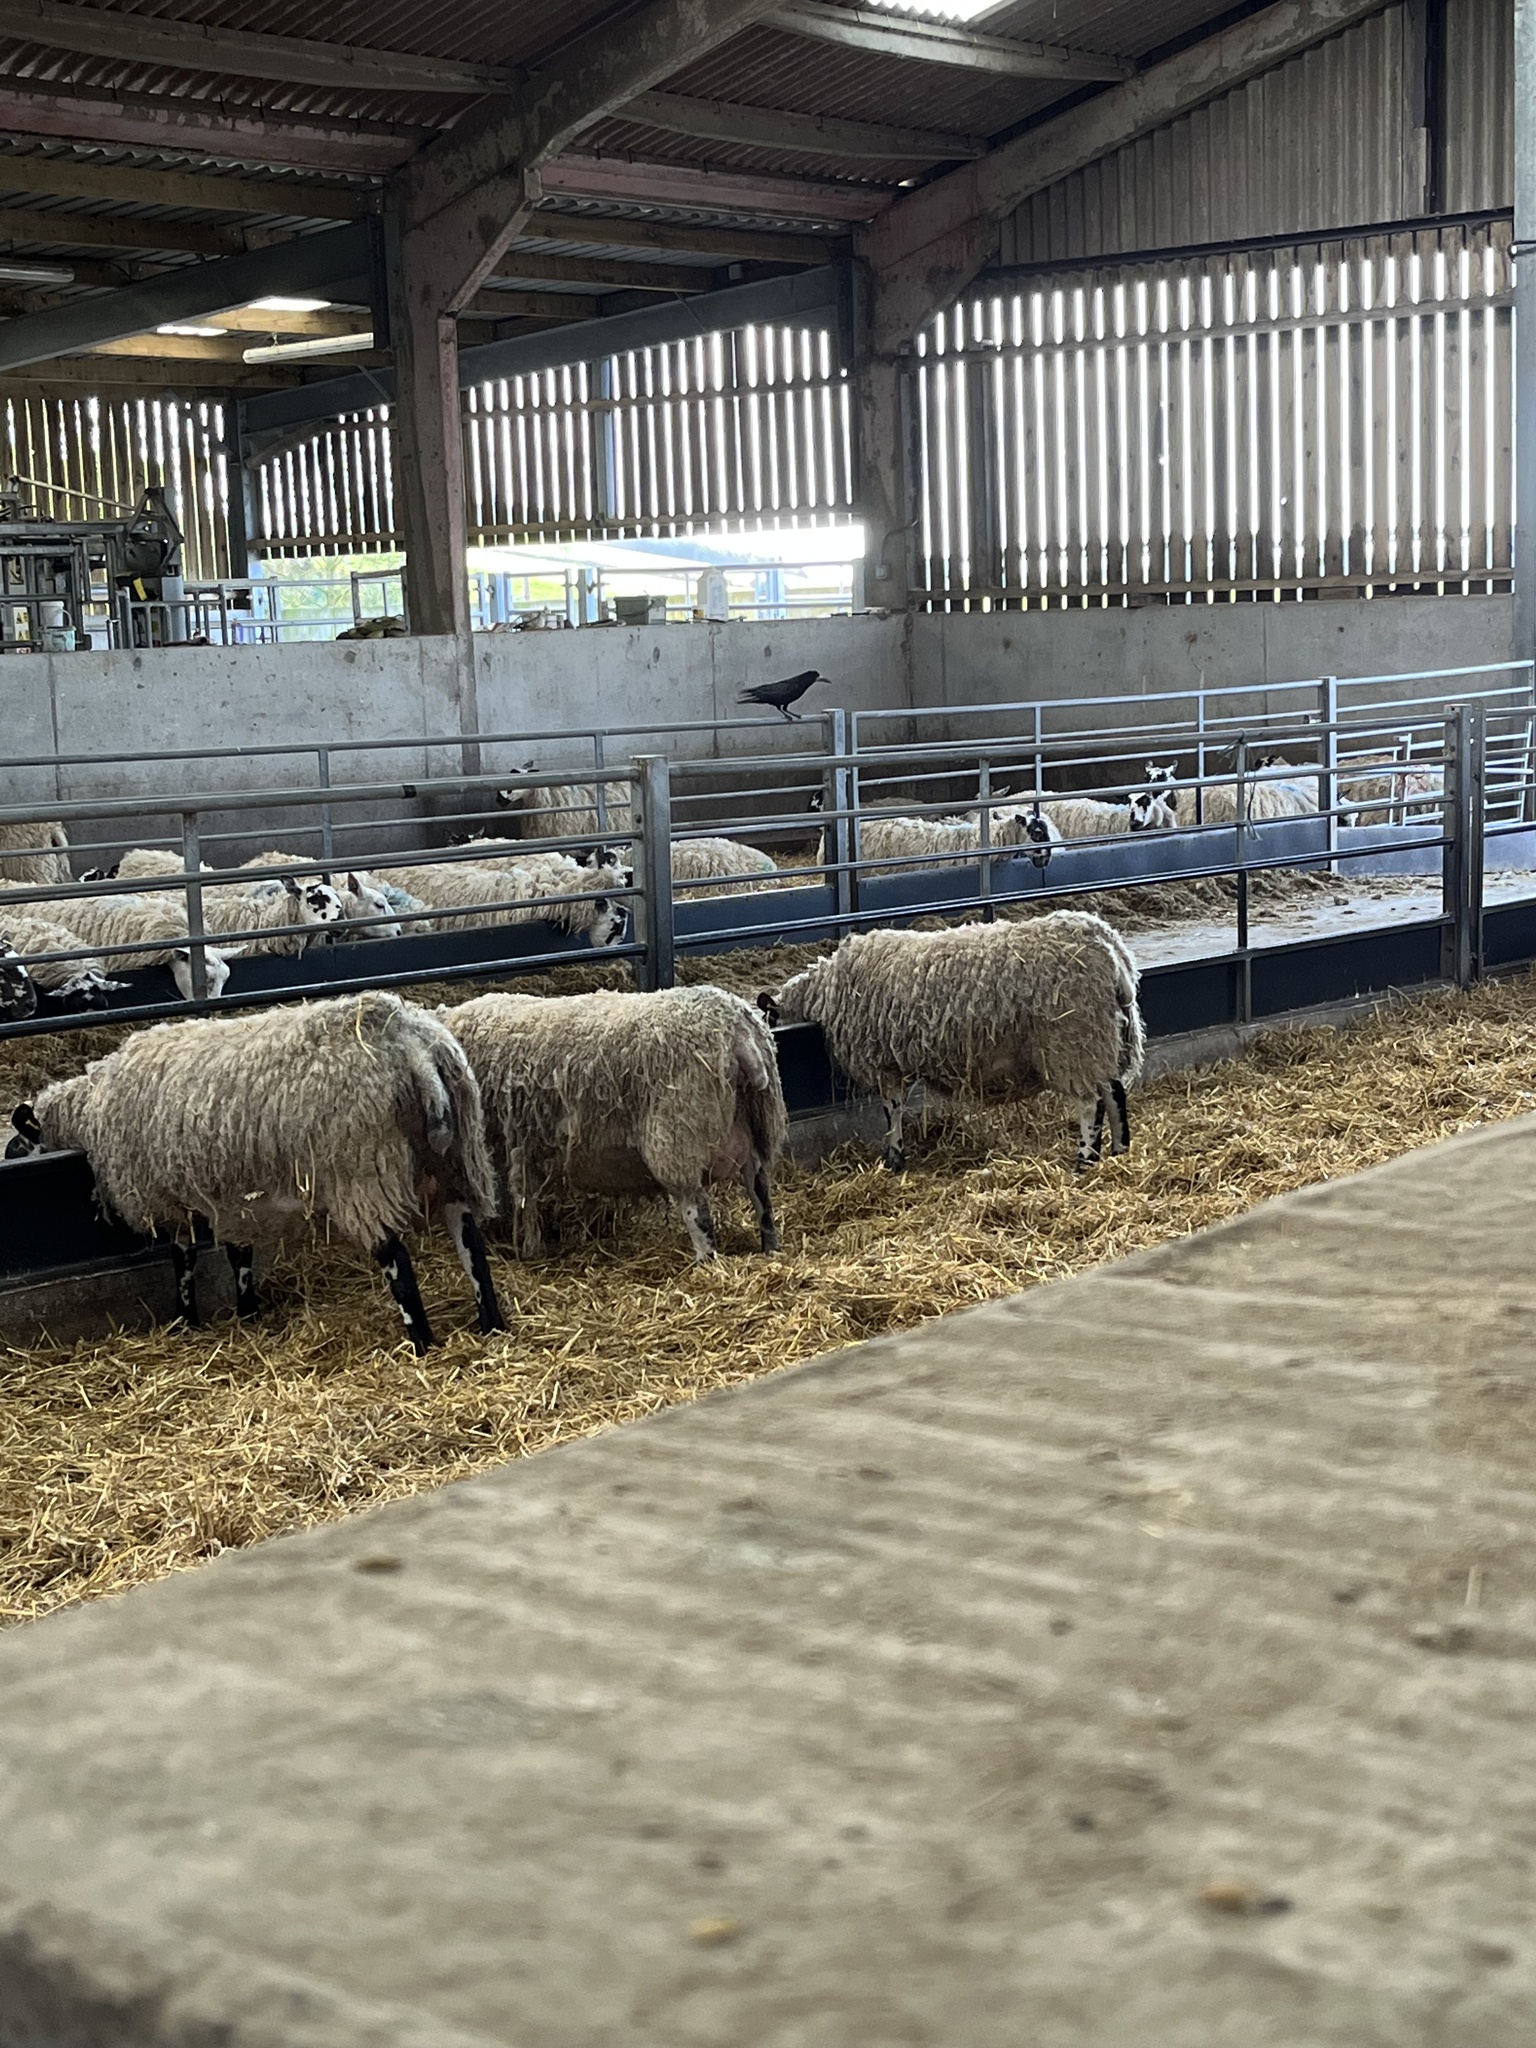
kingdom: Animalia
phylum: Chordata
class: Aves
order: Passeriformes
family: Corvidae
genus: Corvus
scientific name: Corvus frugilegus
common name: Rook
